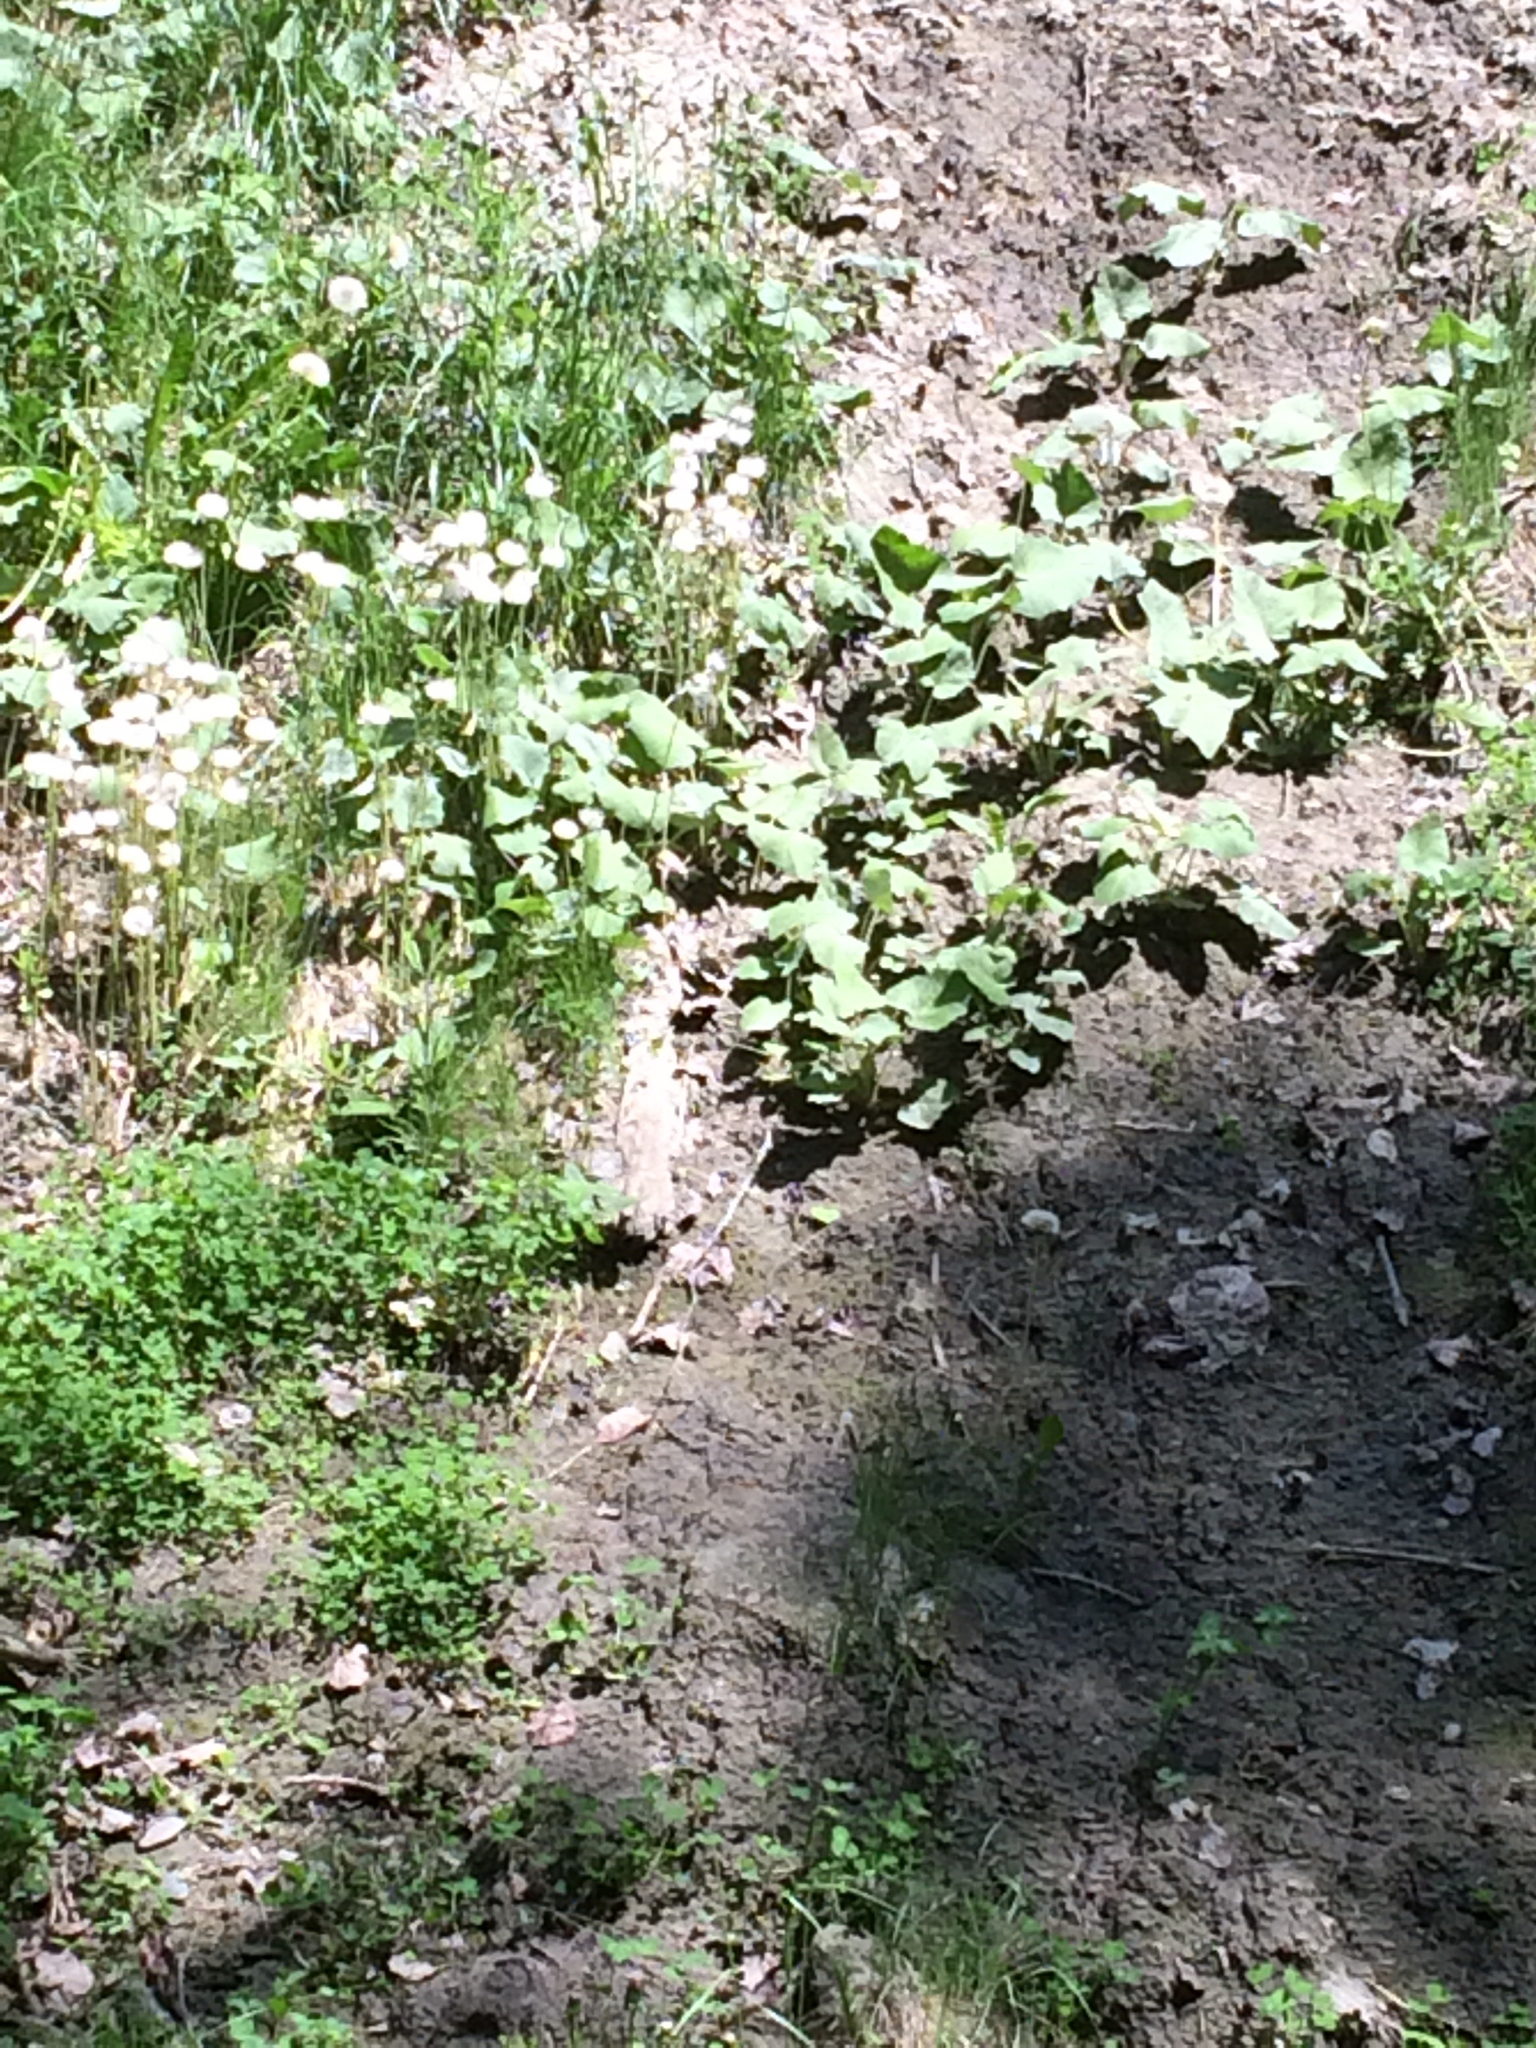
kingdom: Plantae
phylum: Tracheophyta
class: Magnoliopsida
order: Asterales
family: Asteraceae
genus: Tussilago
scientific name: Tussilago farfara
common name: Coltsfoot
